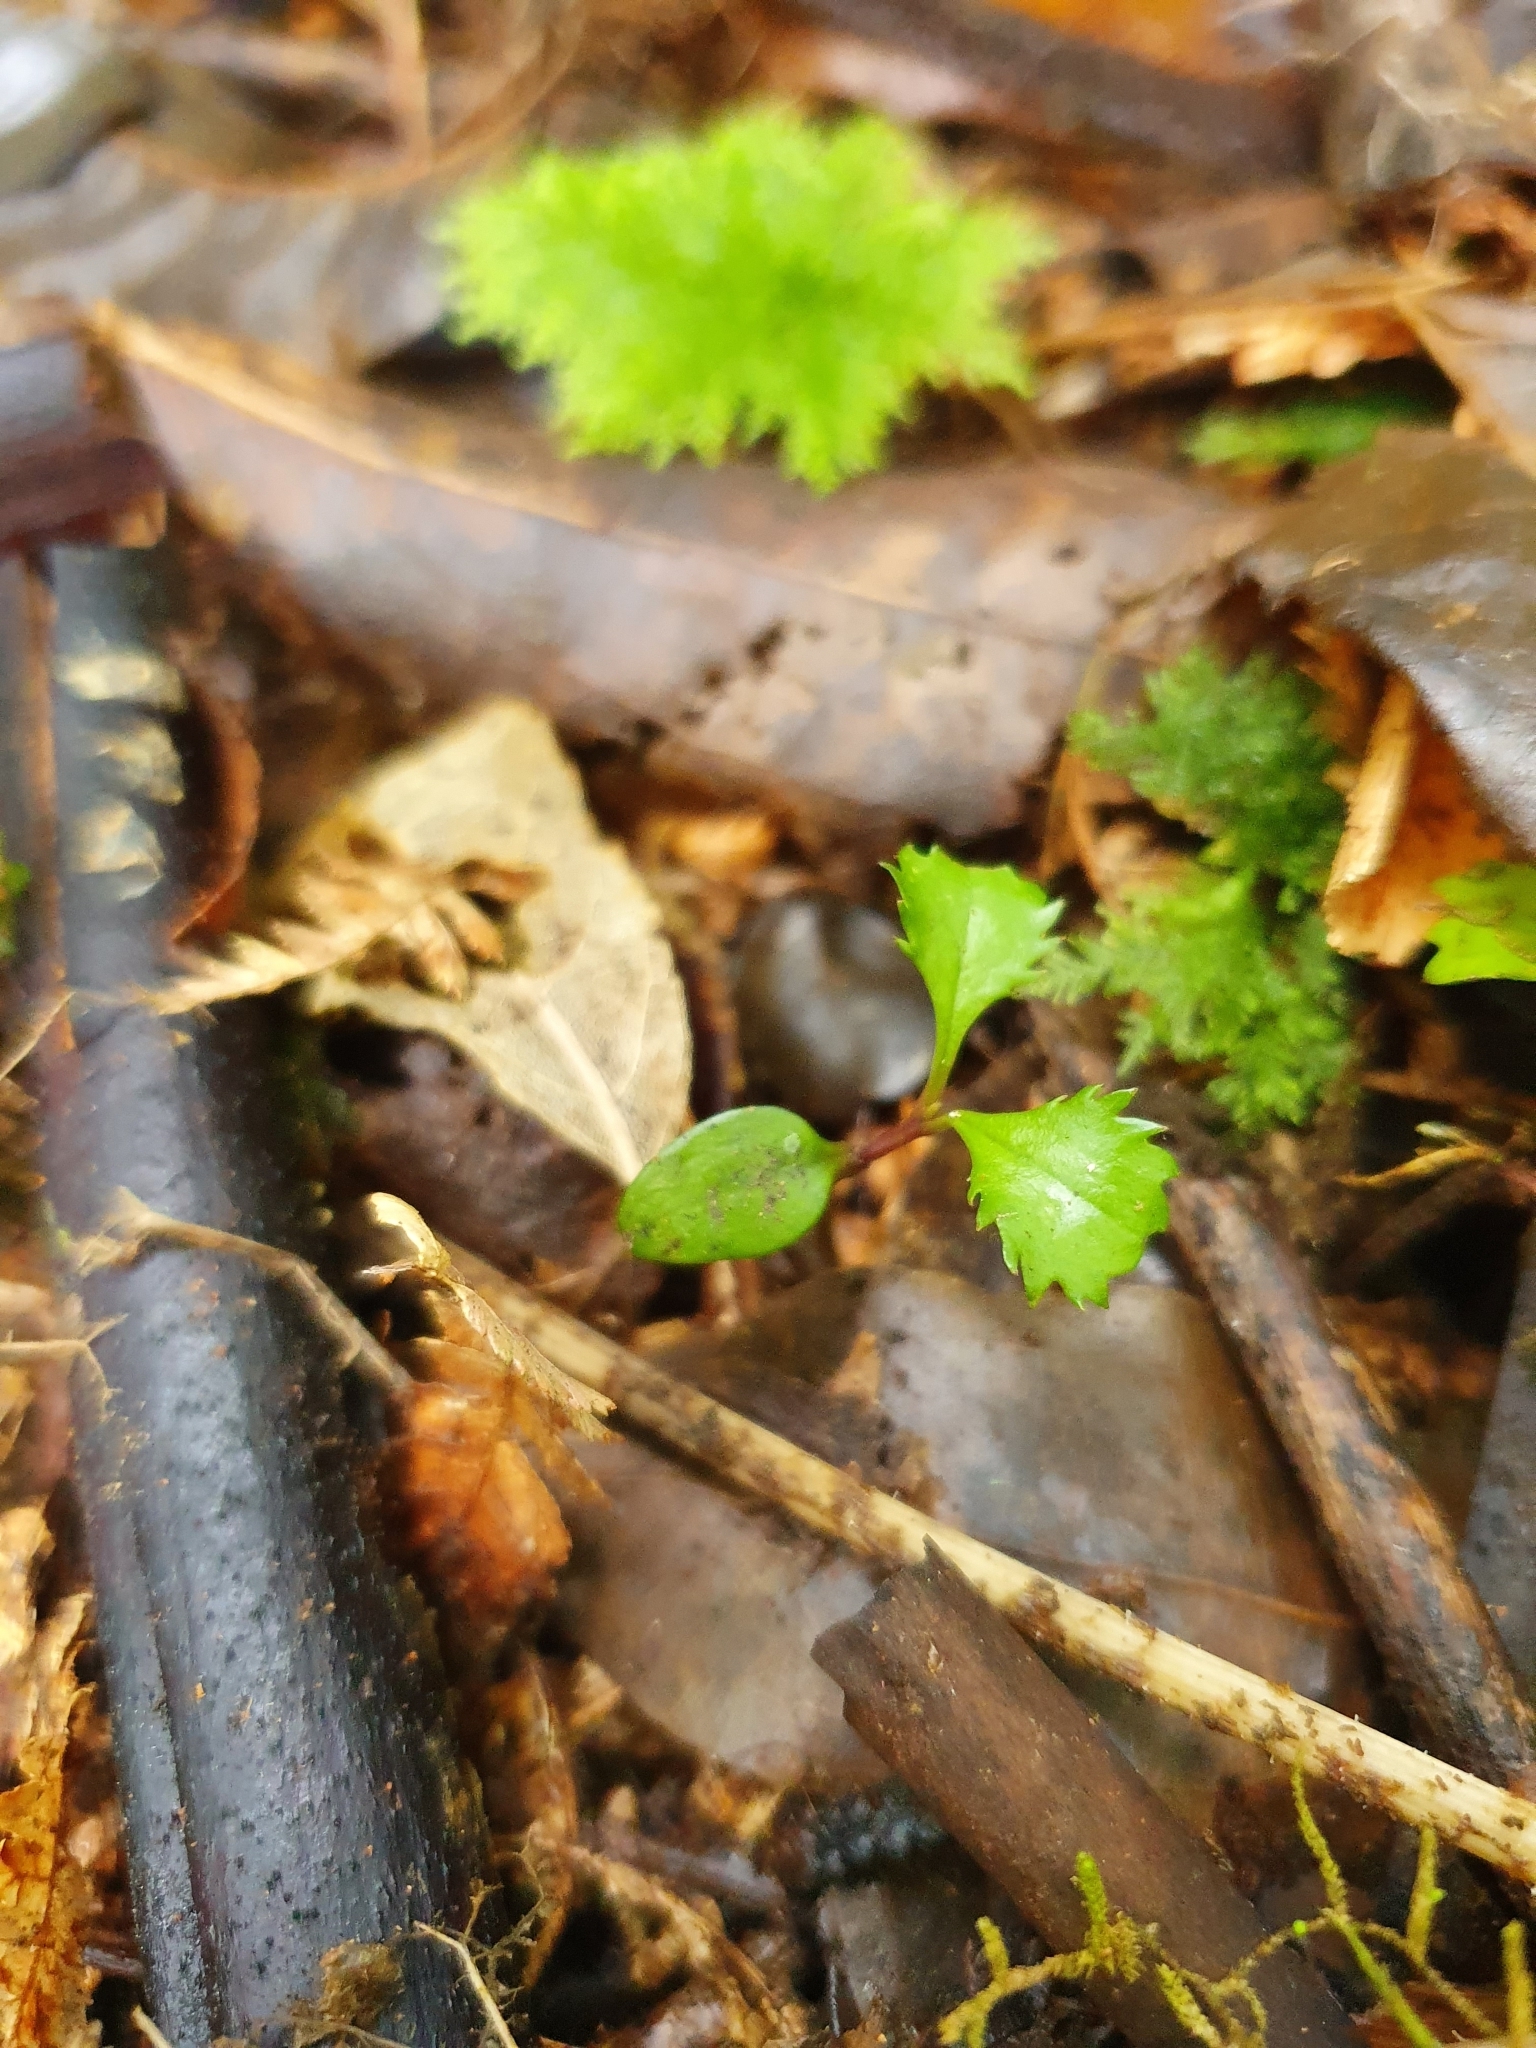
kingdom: Plantae
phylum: Tracheophyta
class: Magnoliopsida
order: Laurales
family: Atherospermataceae
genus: Laurelia
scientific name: Laurelia novae-zelandiae
